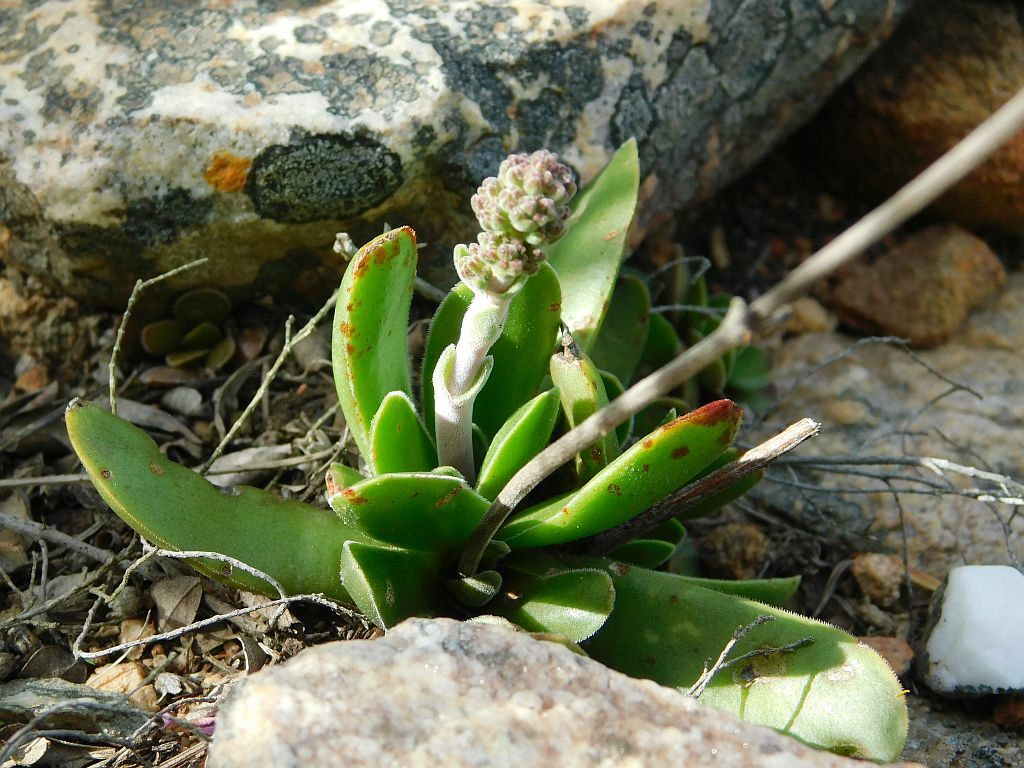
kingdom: Plantae
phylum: Tracheophyta
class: Magnoliopsida
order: Saxifragales
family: Crassulaceae
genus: Crassula
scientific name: Crassula nudicaulis
